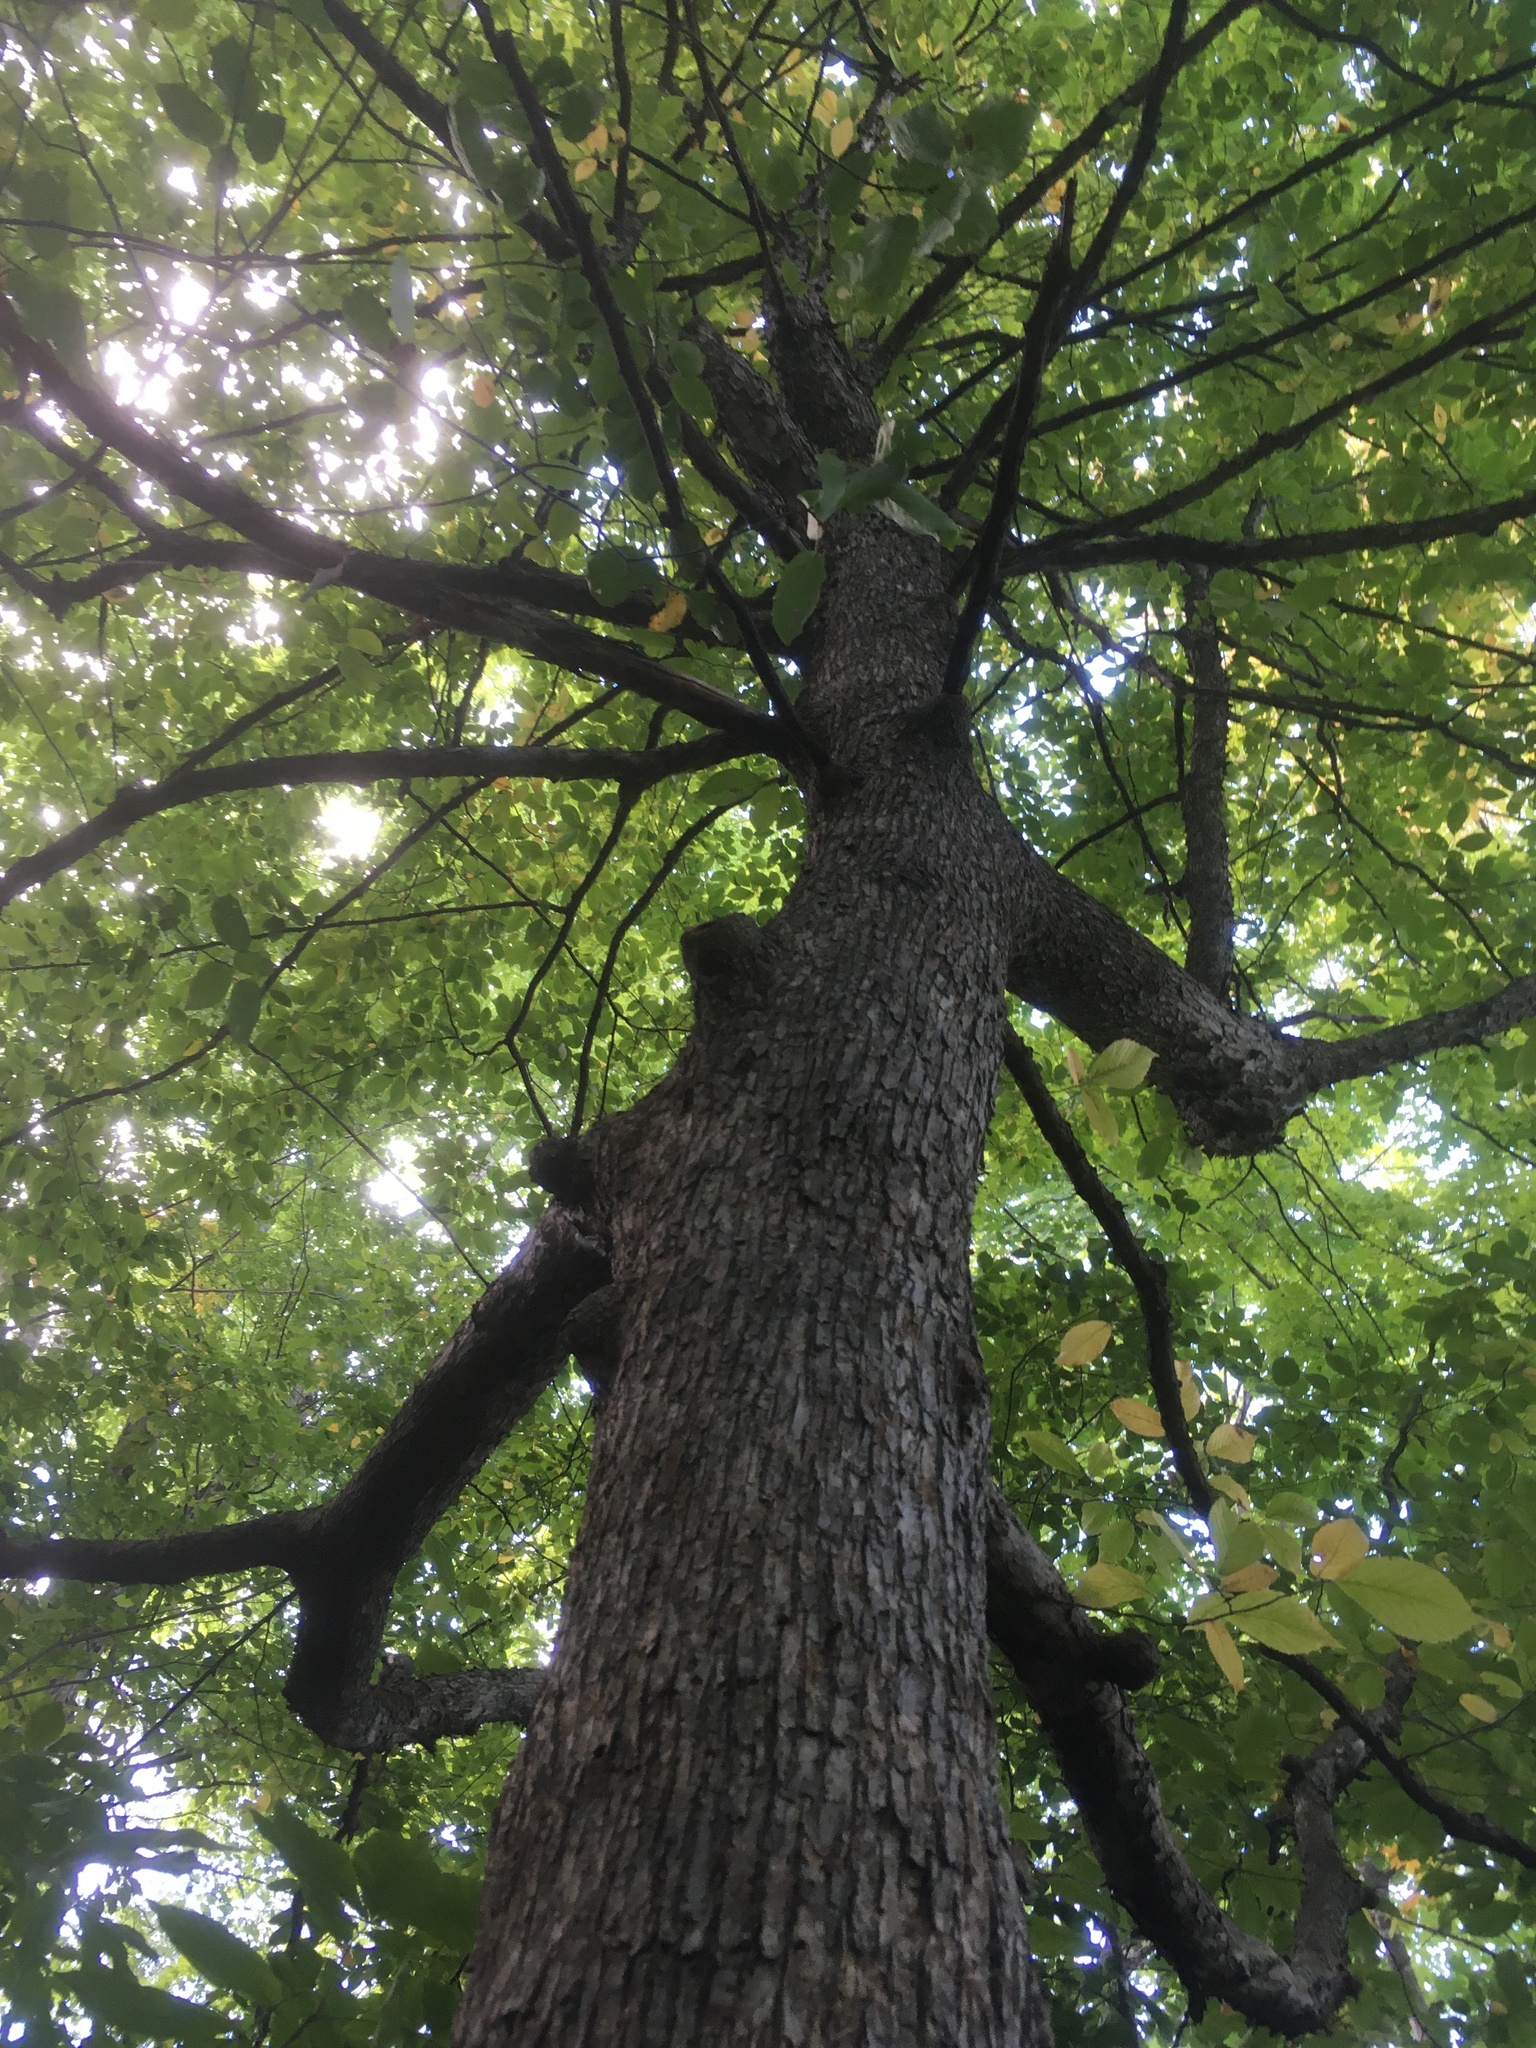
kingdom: Plantae
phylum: Tracheophyta
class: Magnoliopsida
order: Fagales
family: Betulaceae
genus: Ostrya
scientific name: Ostrya virginiana
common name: Ironwood
